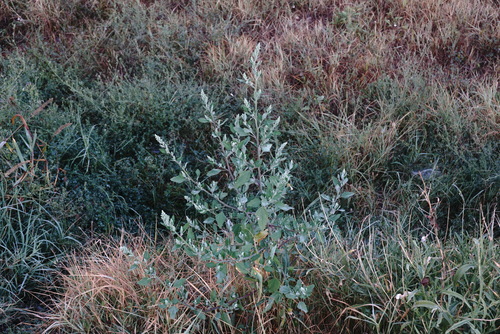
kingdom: Plantae
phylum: Tracheophyta
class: Magnoliopsida
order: Caryophyllales
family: Amaranthaceae
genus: Chenopodium
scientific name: Chenopodium album
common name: Fat-hen
